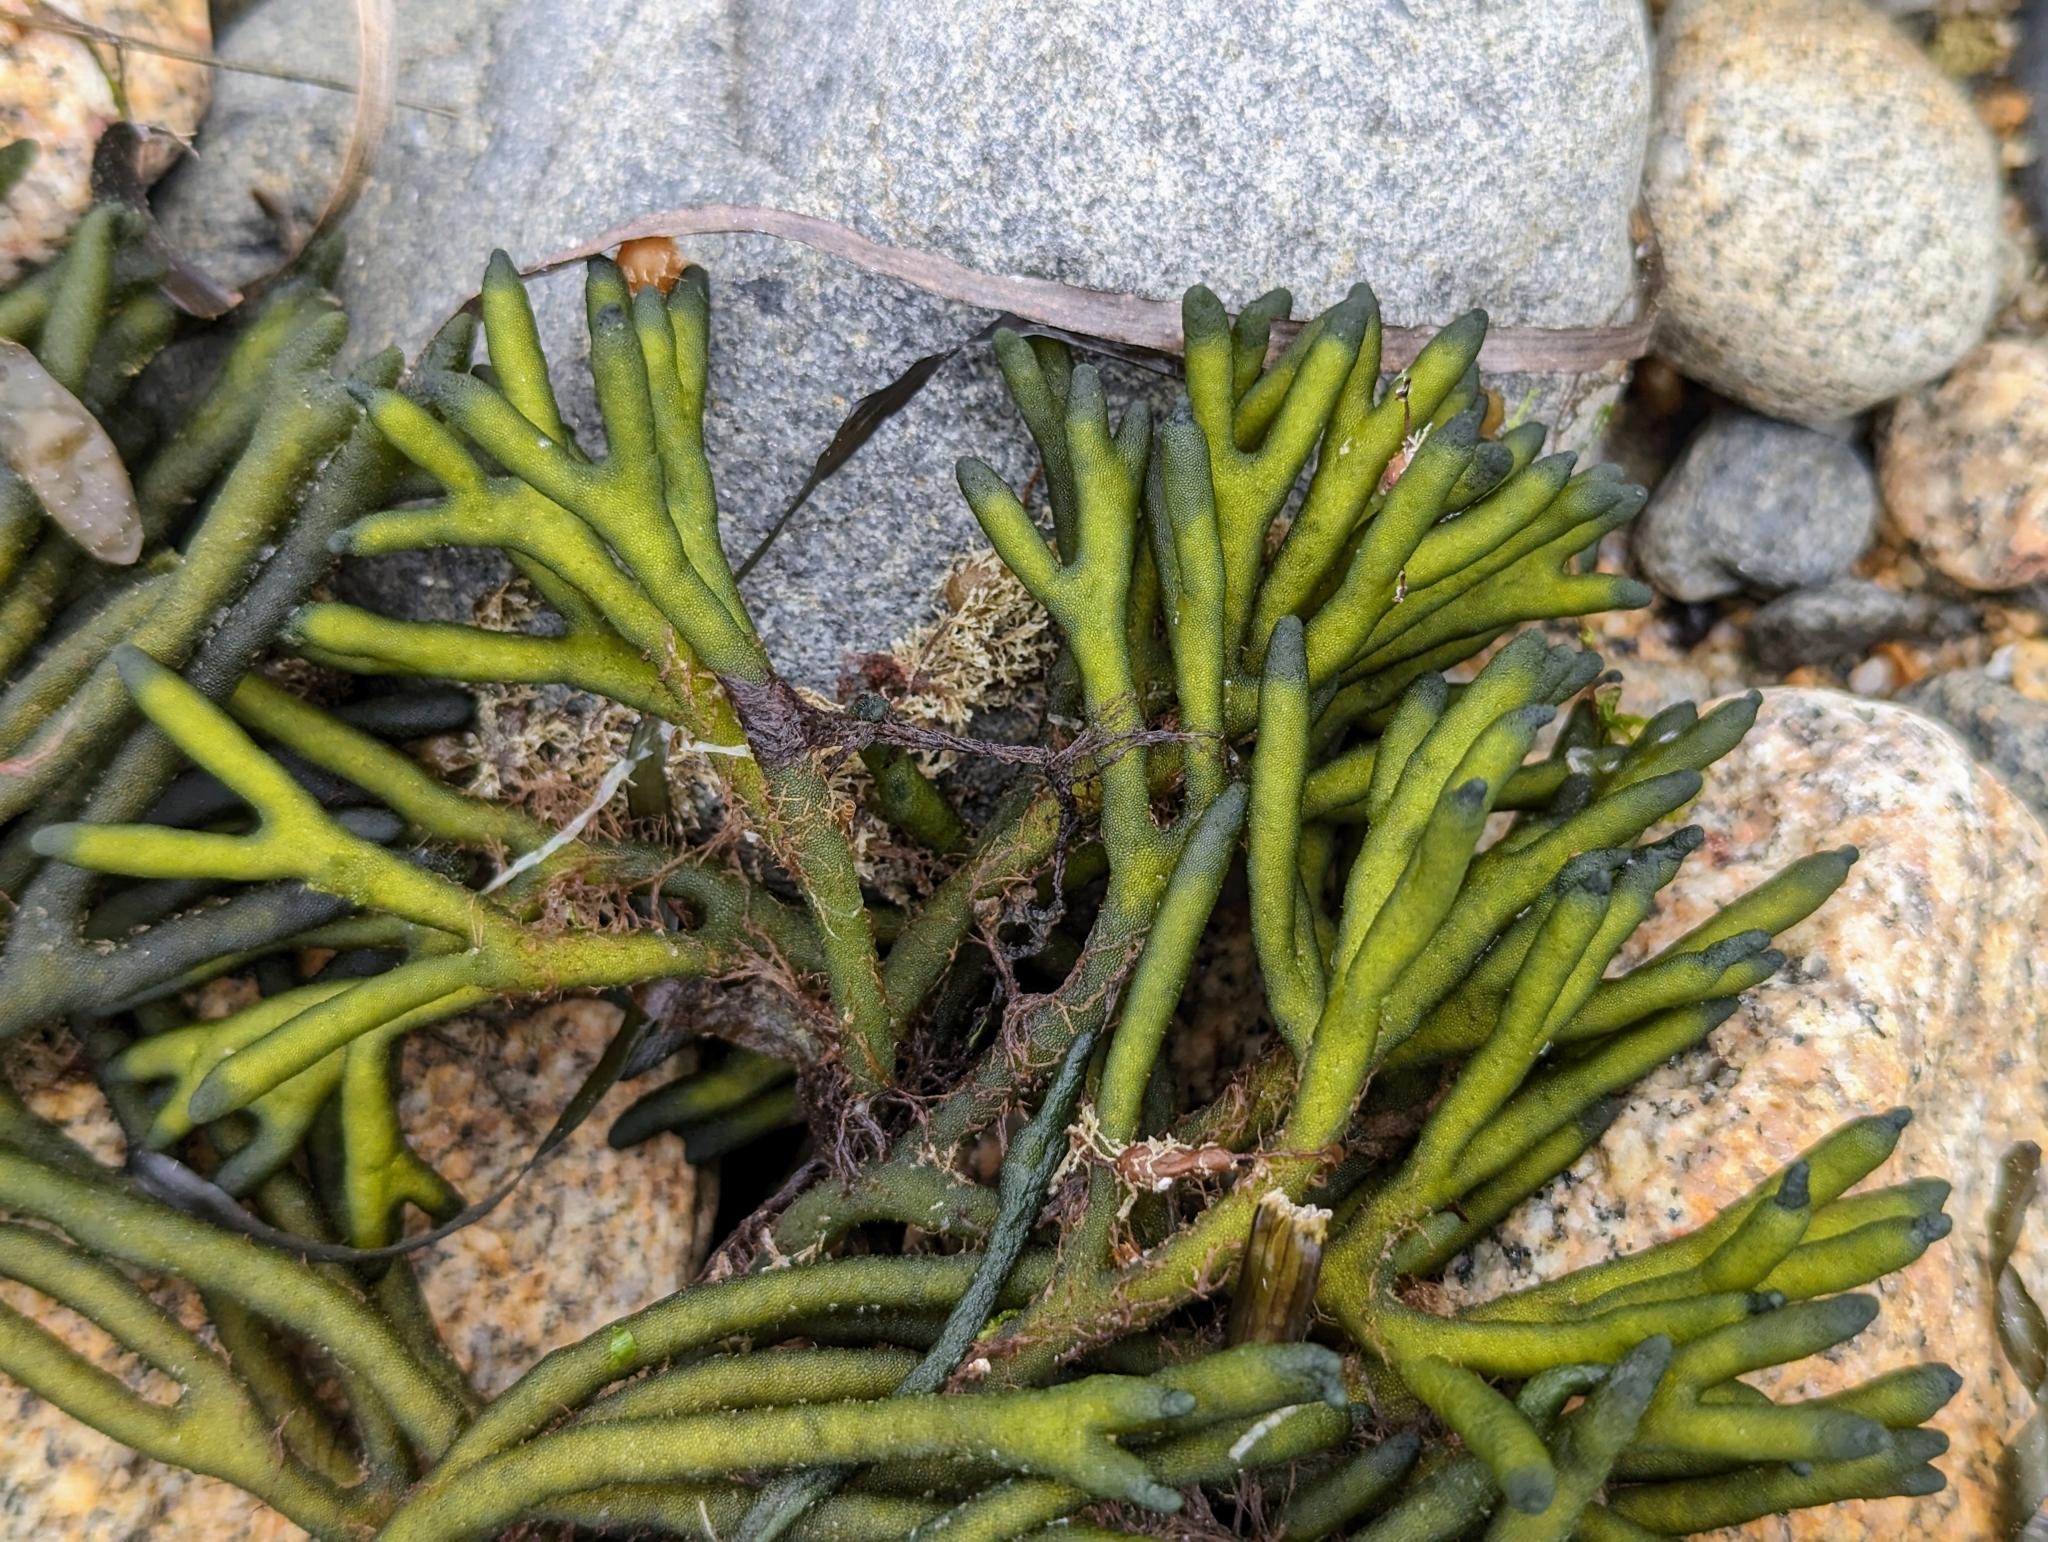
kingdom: Plantae
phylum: Chlorophyta
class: Ulvophyceae
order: Bryopsidales
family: Codiaceae
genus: Codium
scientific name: Codium fragile
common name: Dead man's fingers
